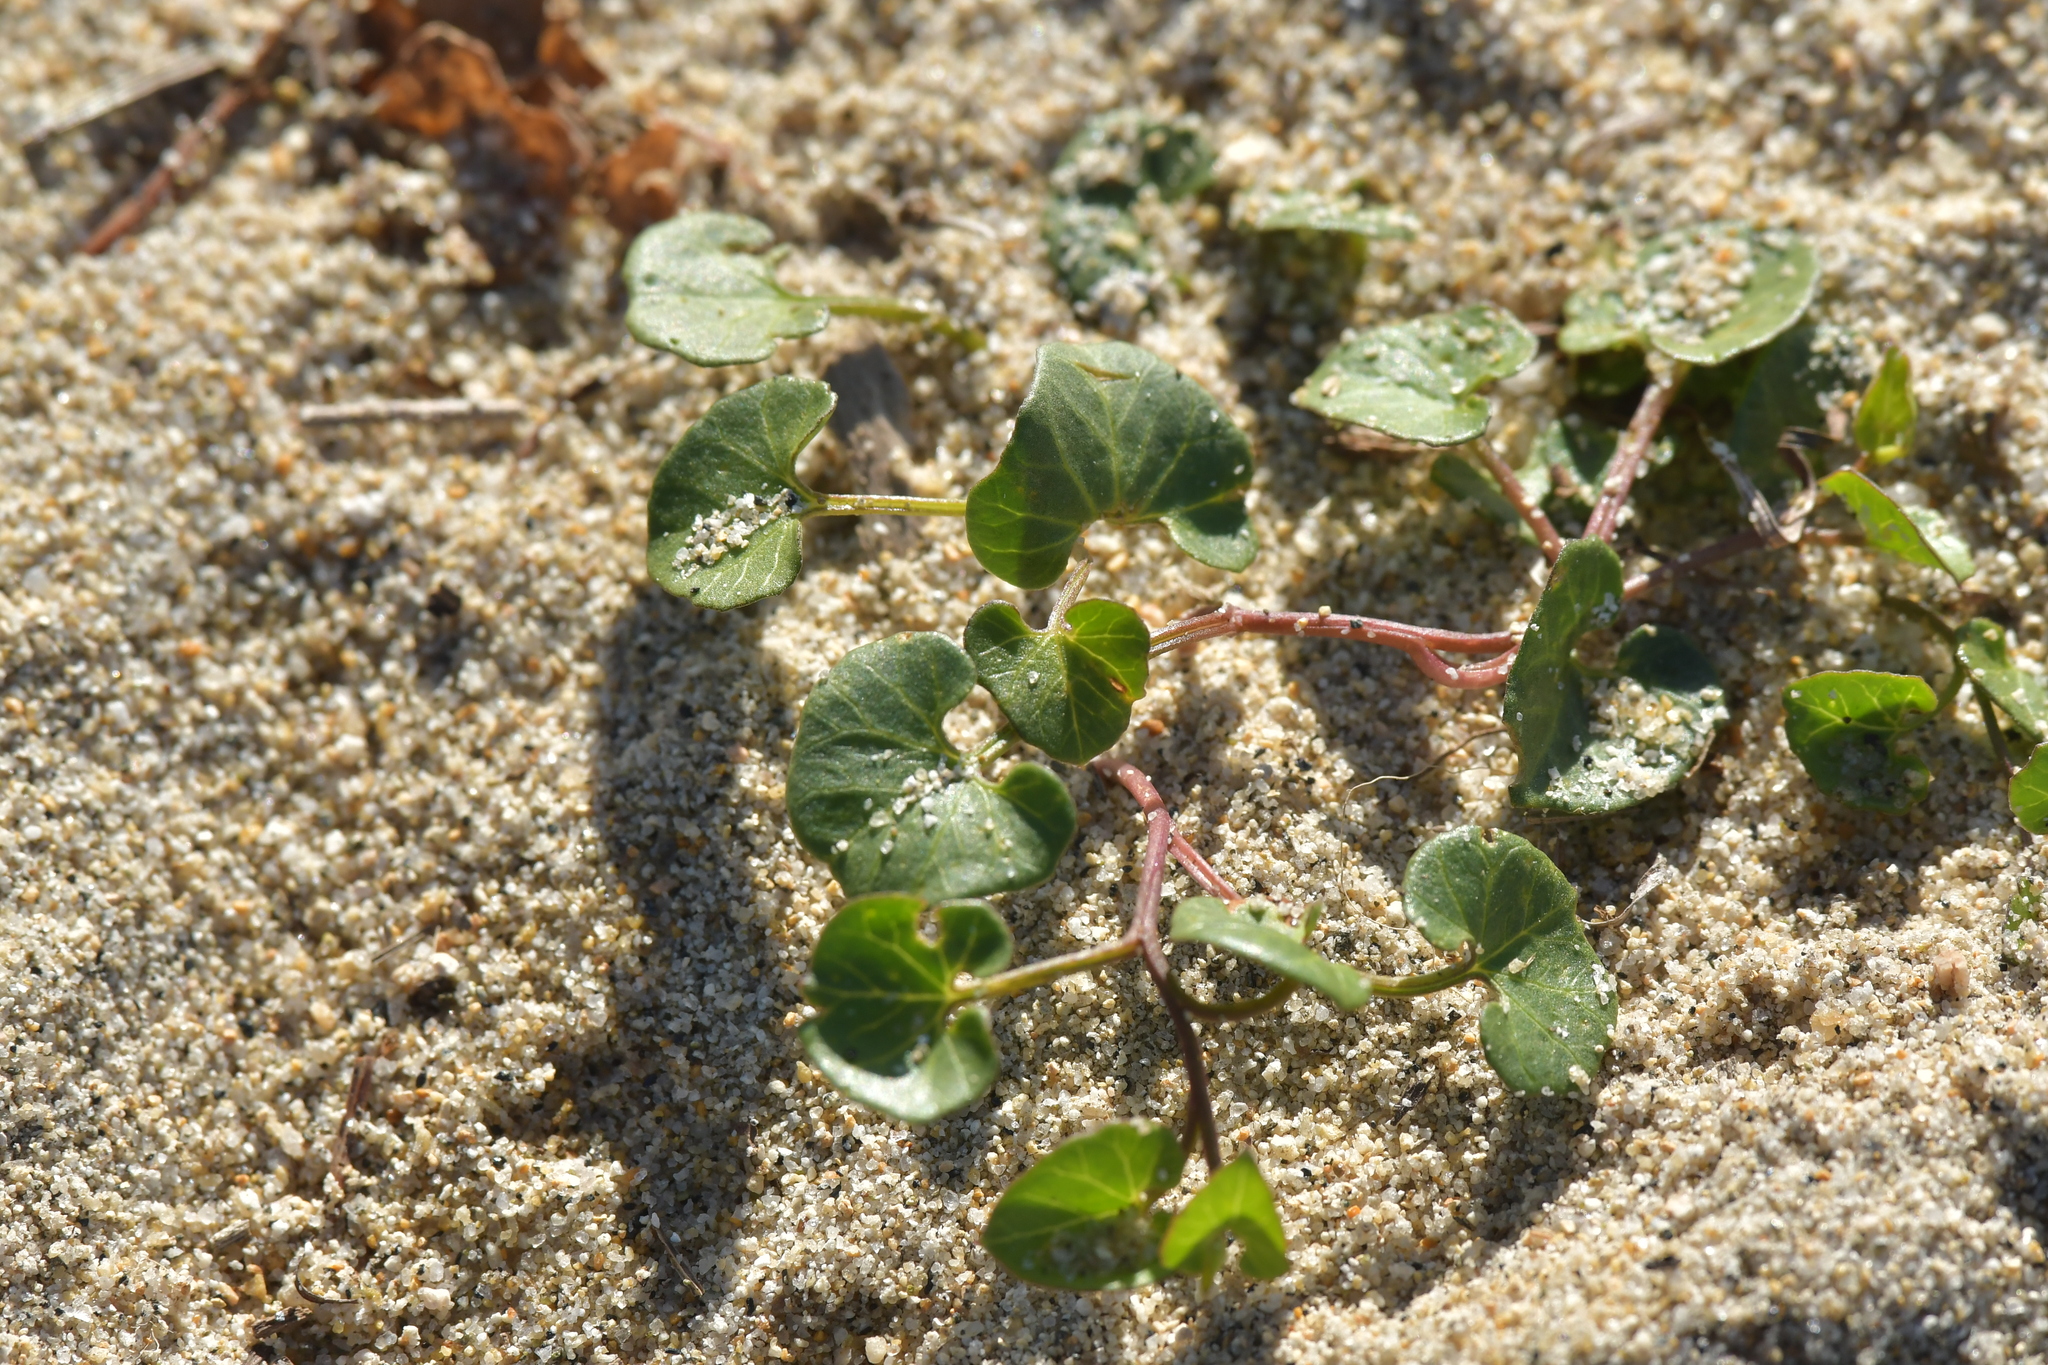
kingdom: Plantae
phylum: Tracheophyta
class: Magnoliopsida
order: Solanales
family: Convolvulaceae
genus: Calystegia
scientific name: Calystegia soldanella
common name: Sea bindweed
